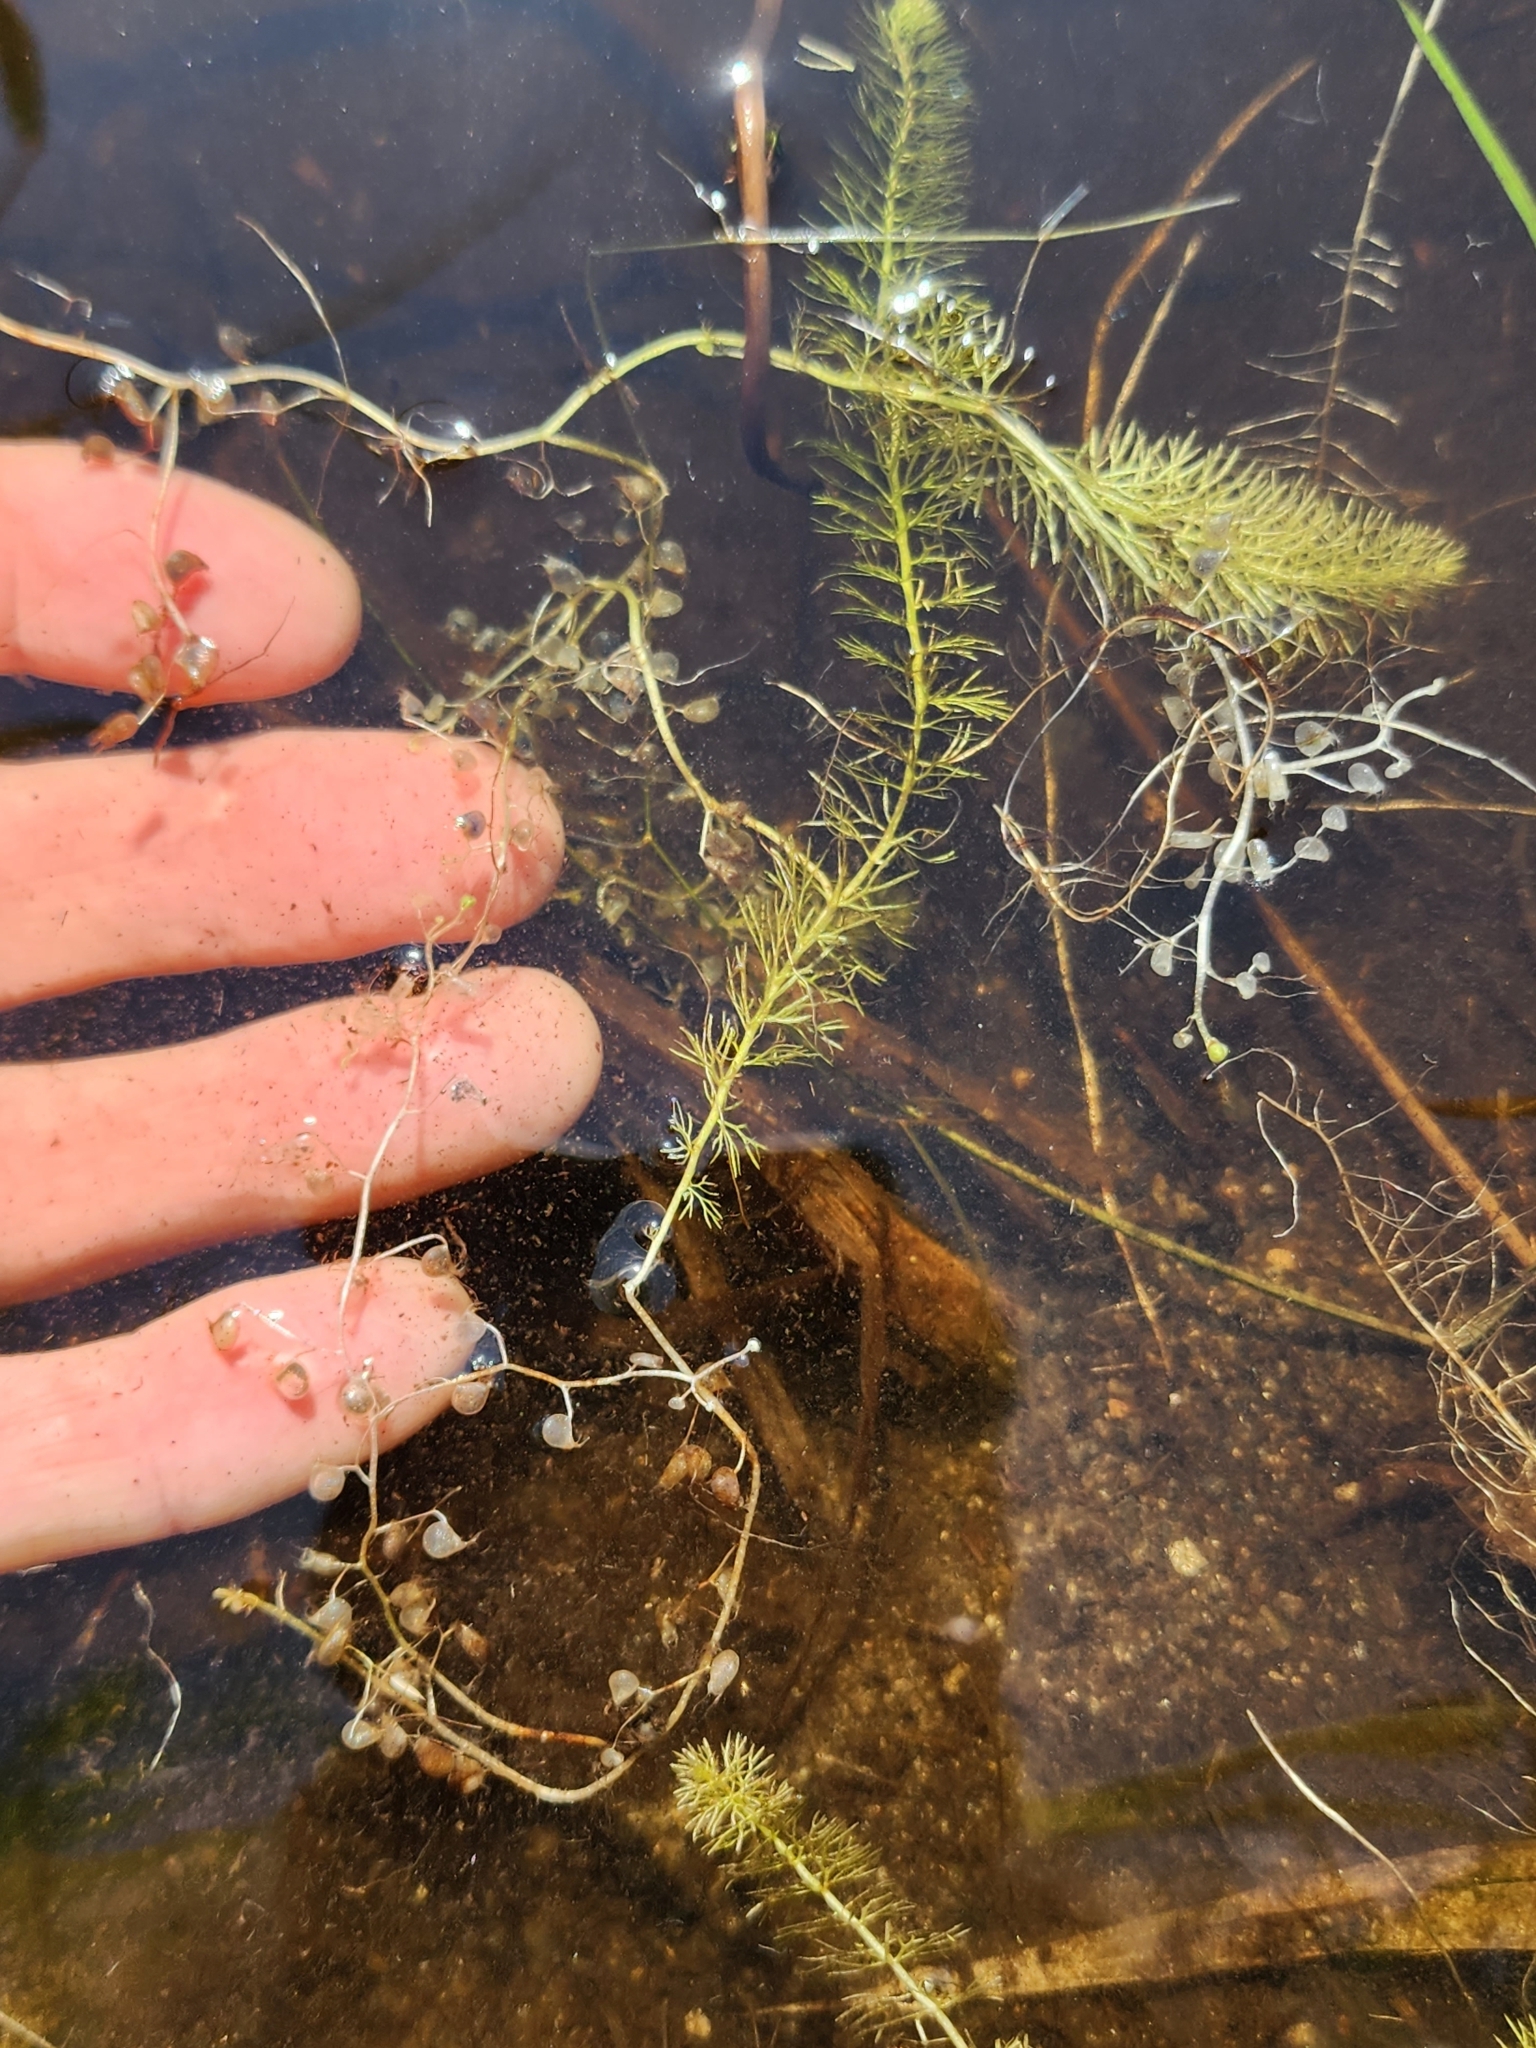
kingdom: Plantae
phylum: Tracheophyta
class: Magnoliopsida
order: Lamiales
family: Lentibulariaceae
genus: Utricularia
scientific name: Utricularia intermedia
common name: Intermediate bladderwort
